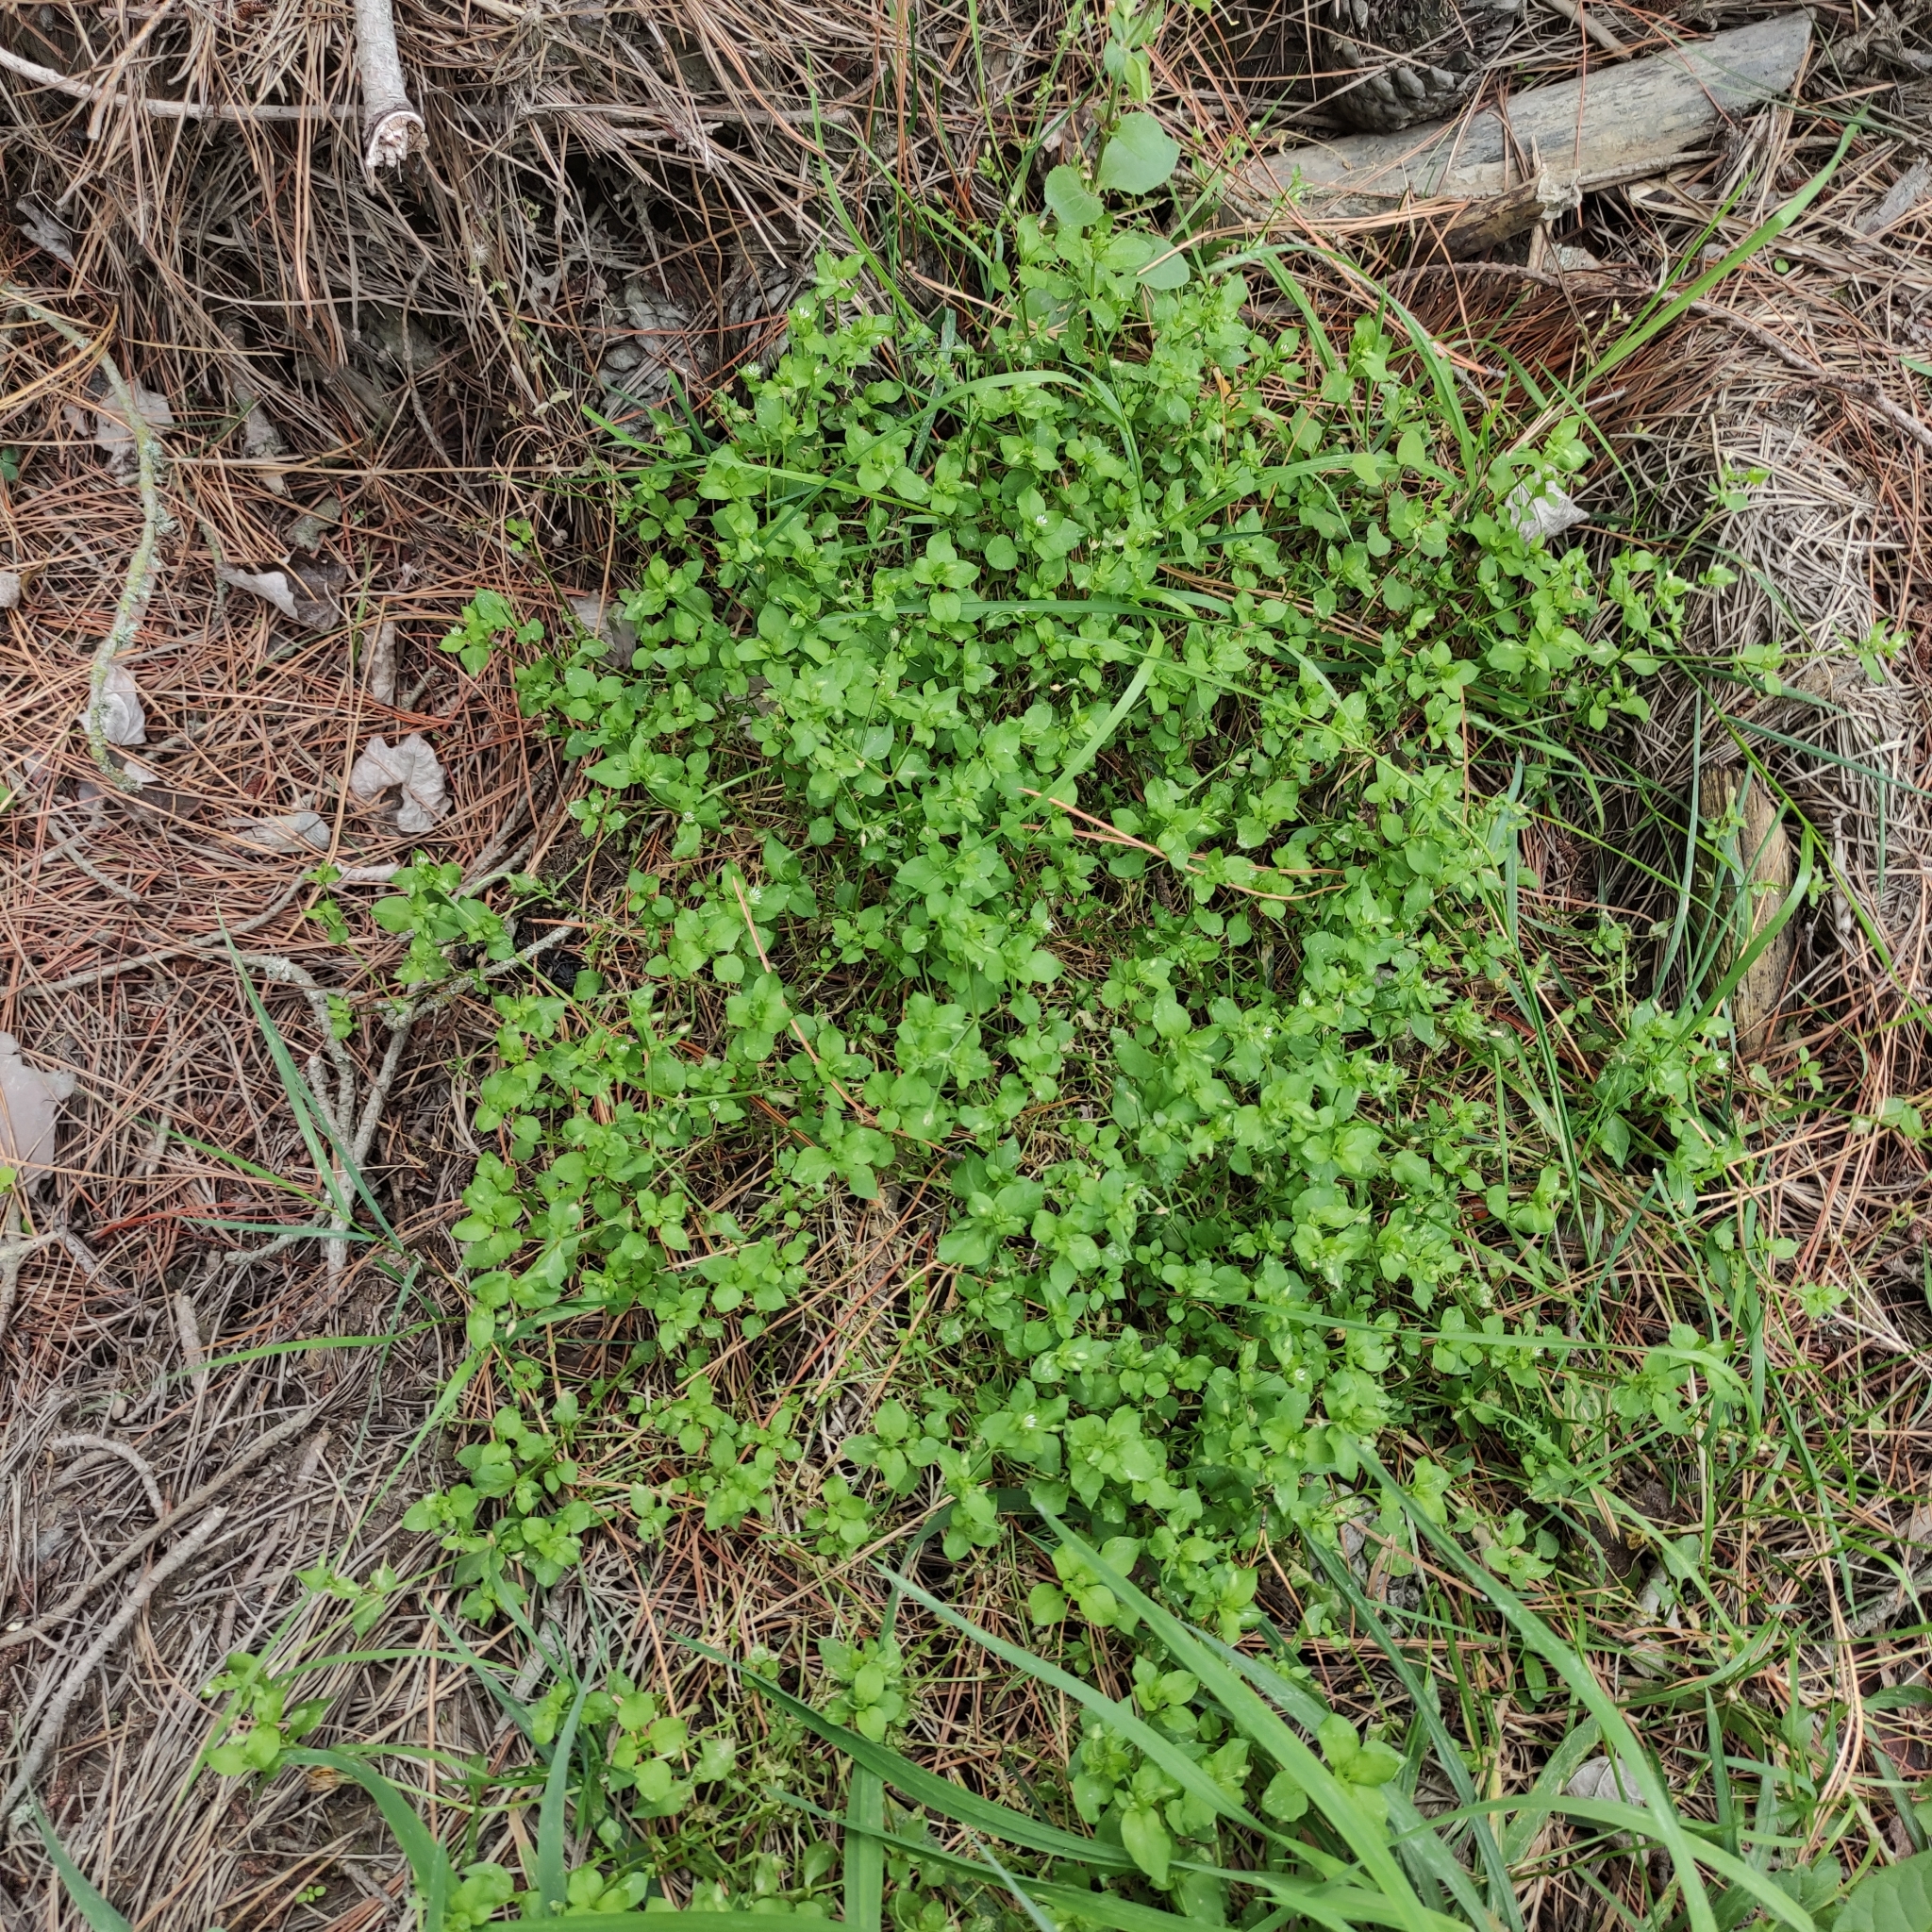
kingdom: Plantae
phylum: Tracheophyta
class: Magnoliopsida
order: Caryophyllales
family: Caryophyllaceae
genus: Stellaria
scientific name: Stellaria media
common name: Common chickweed
